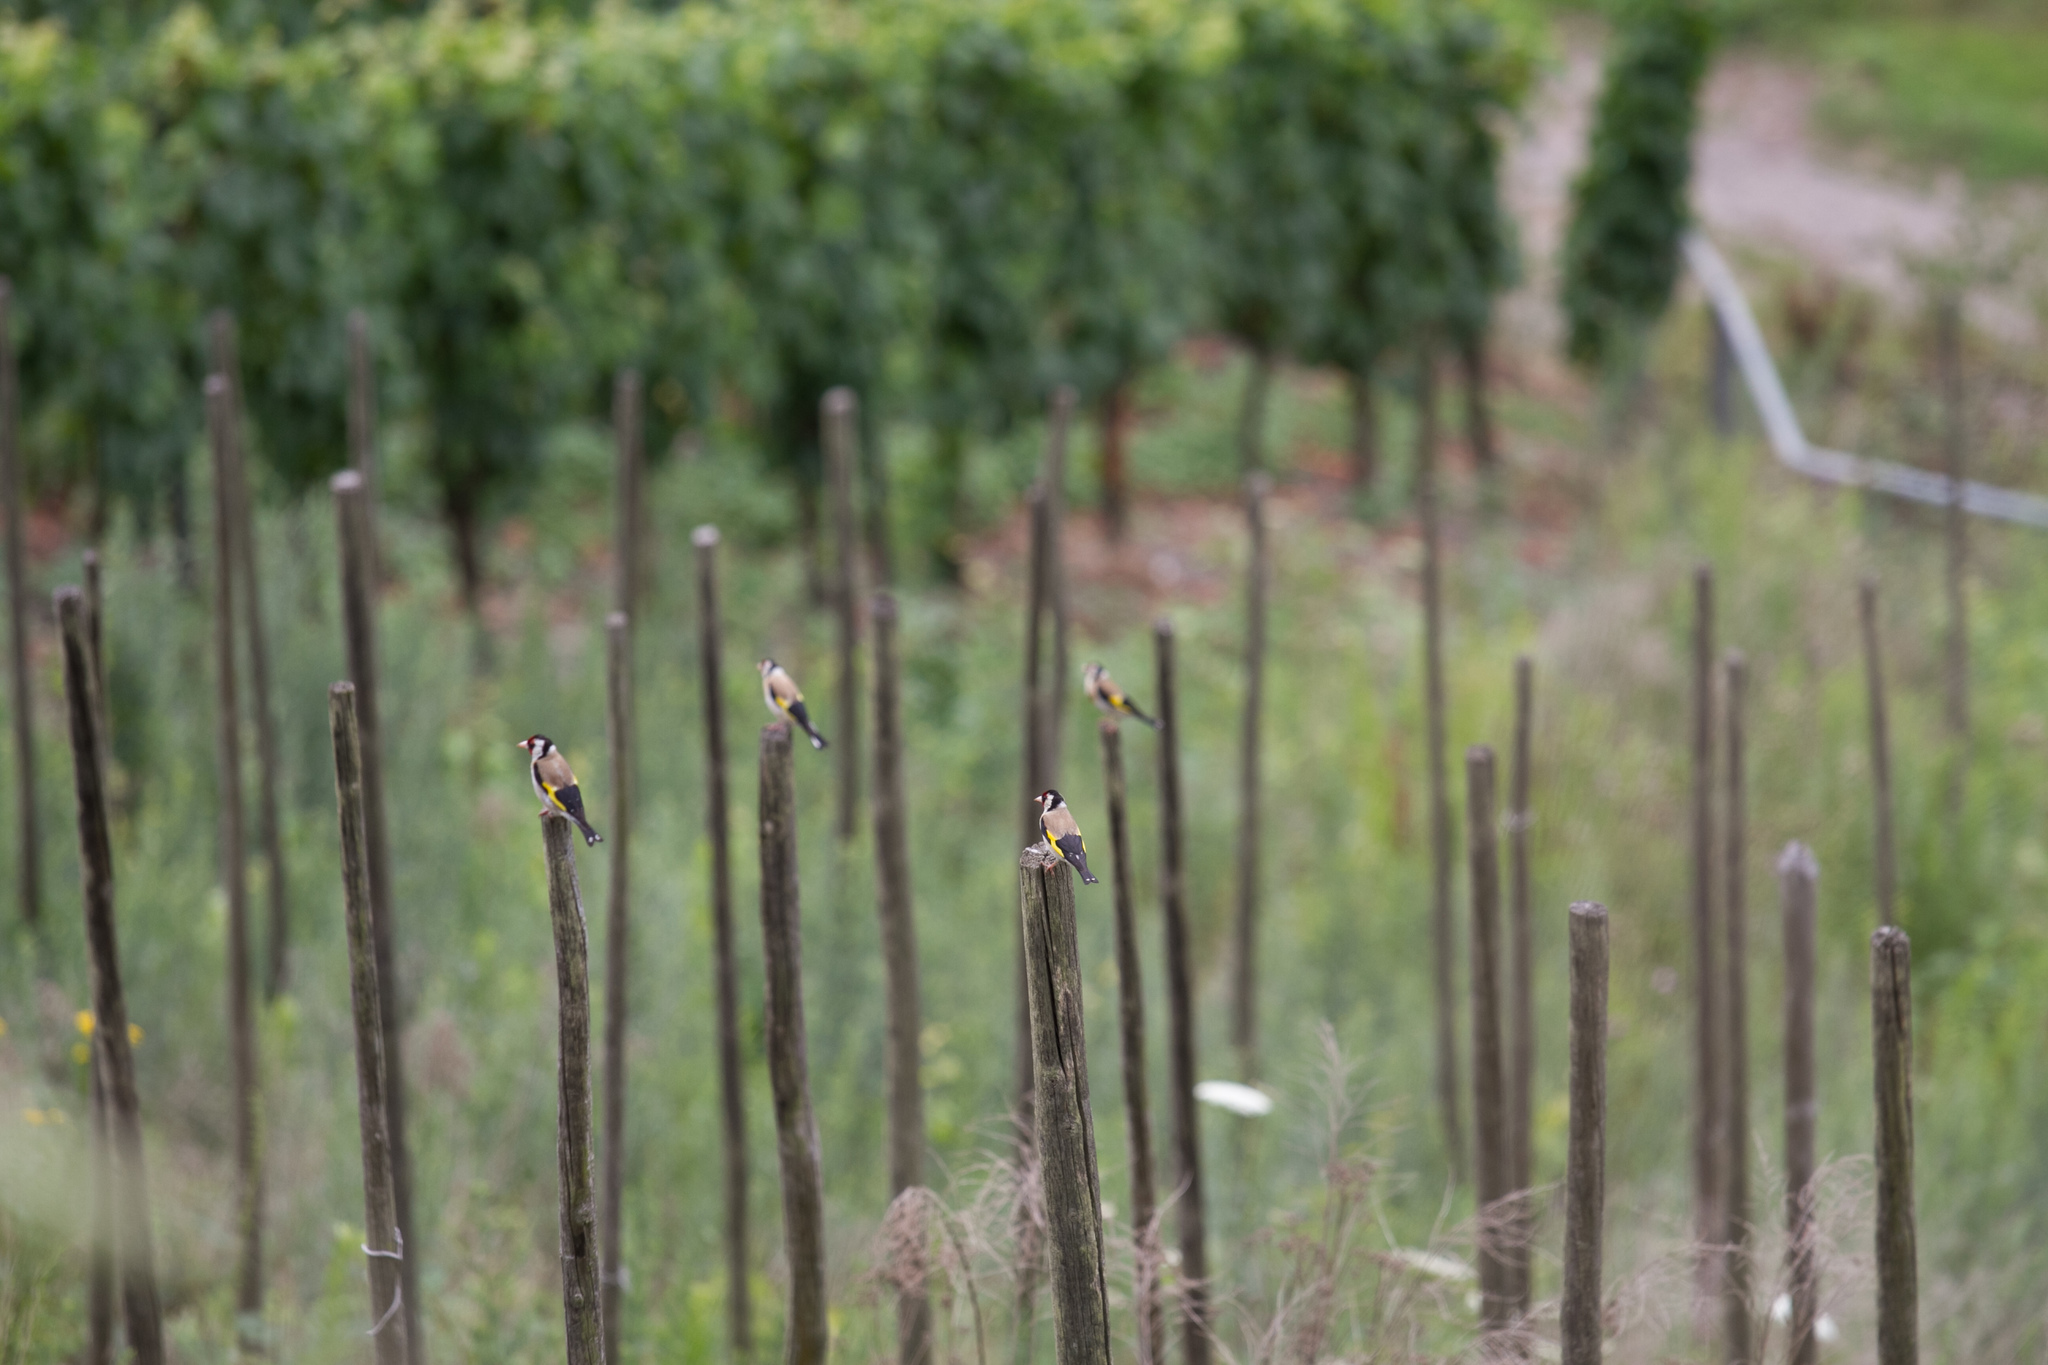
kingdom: Animalia
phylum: Chordata
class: Aves
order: Passeriformes
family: Fringillidae
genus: Carduelis
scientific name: Carduelis carduelis
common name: European goldfinch
